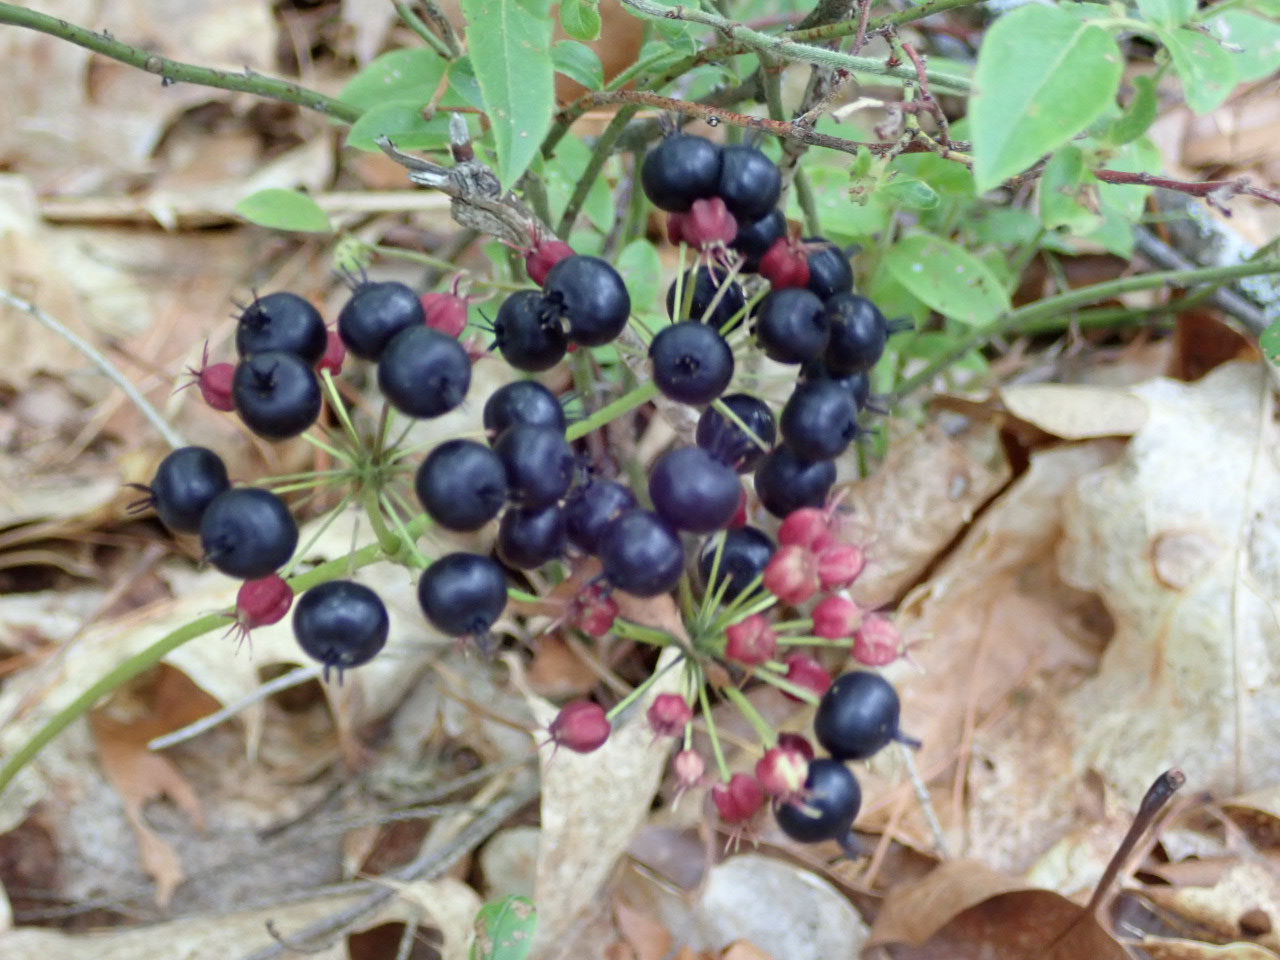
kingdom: Plantae
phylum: Tracheophyta
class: Magnoliopsida
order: Apiales
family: Araliaceae
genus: Aralia
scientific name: Aralia nudicaulis
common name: Wild sarsaparilla
